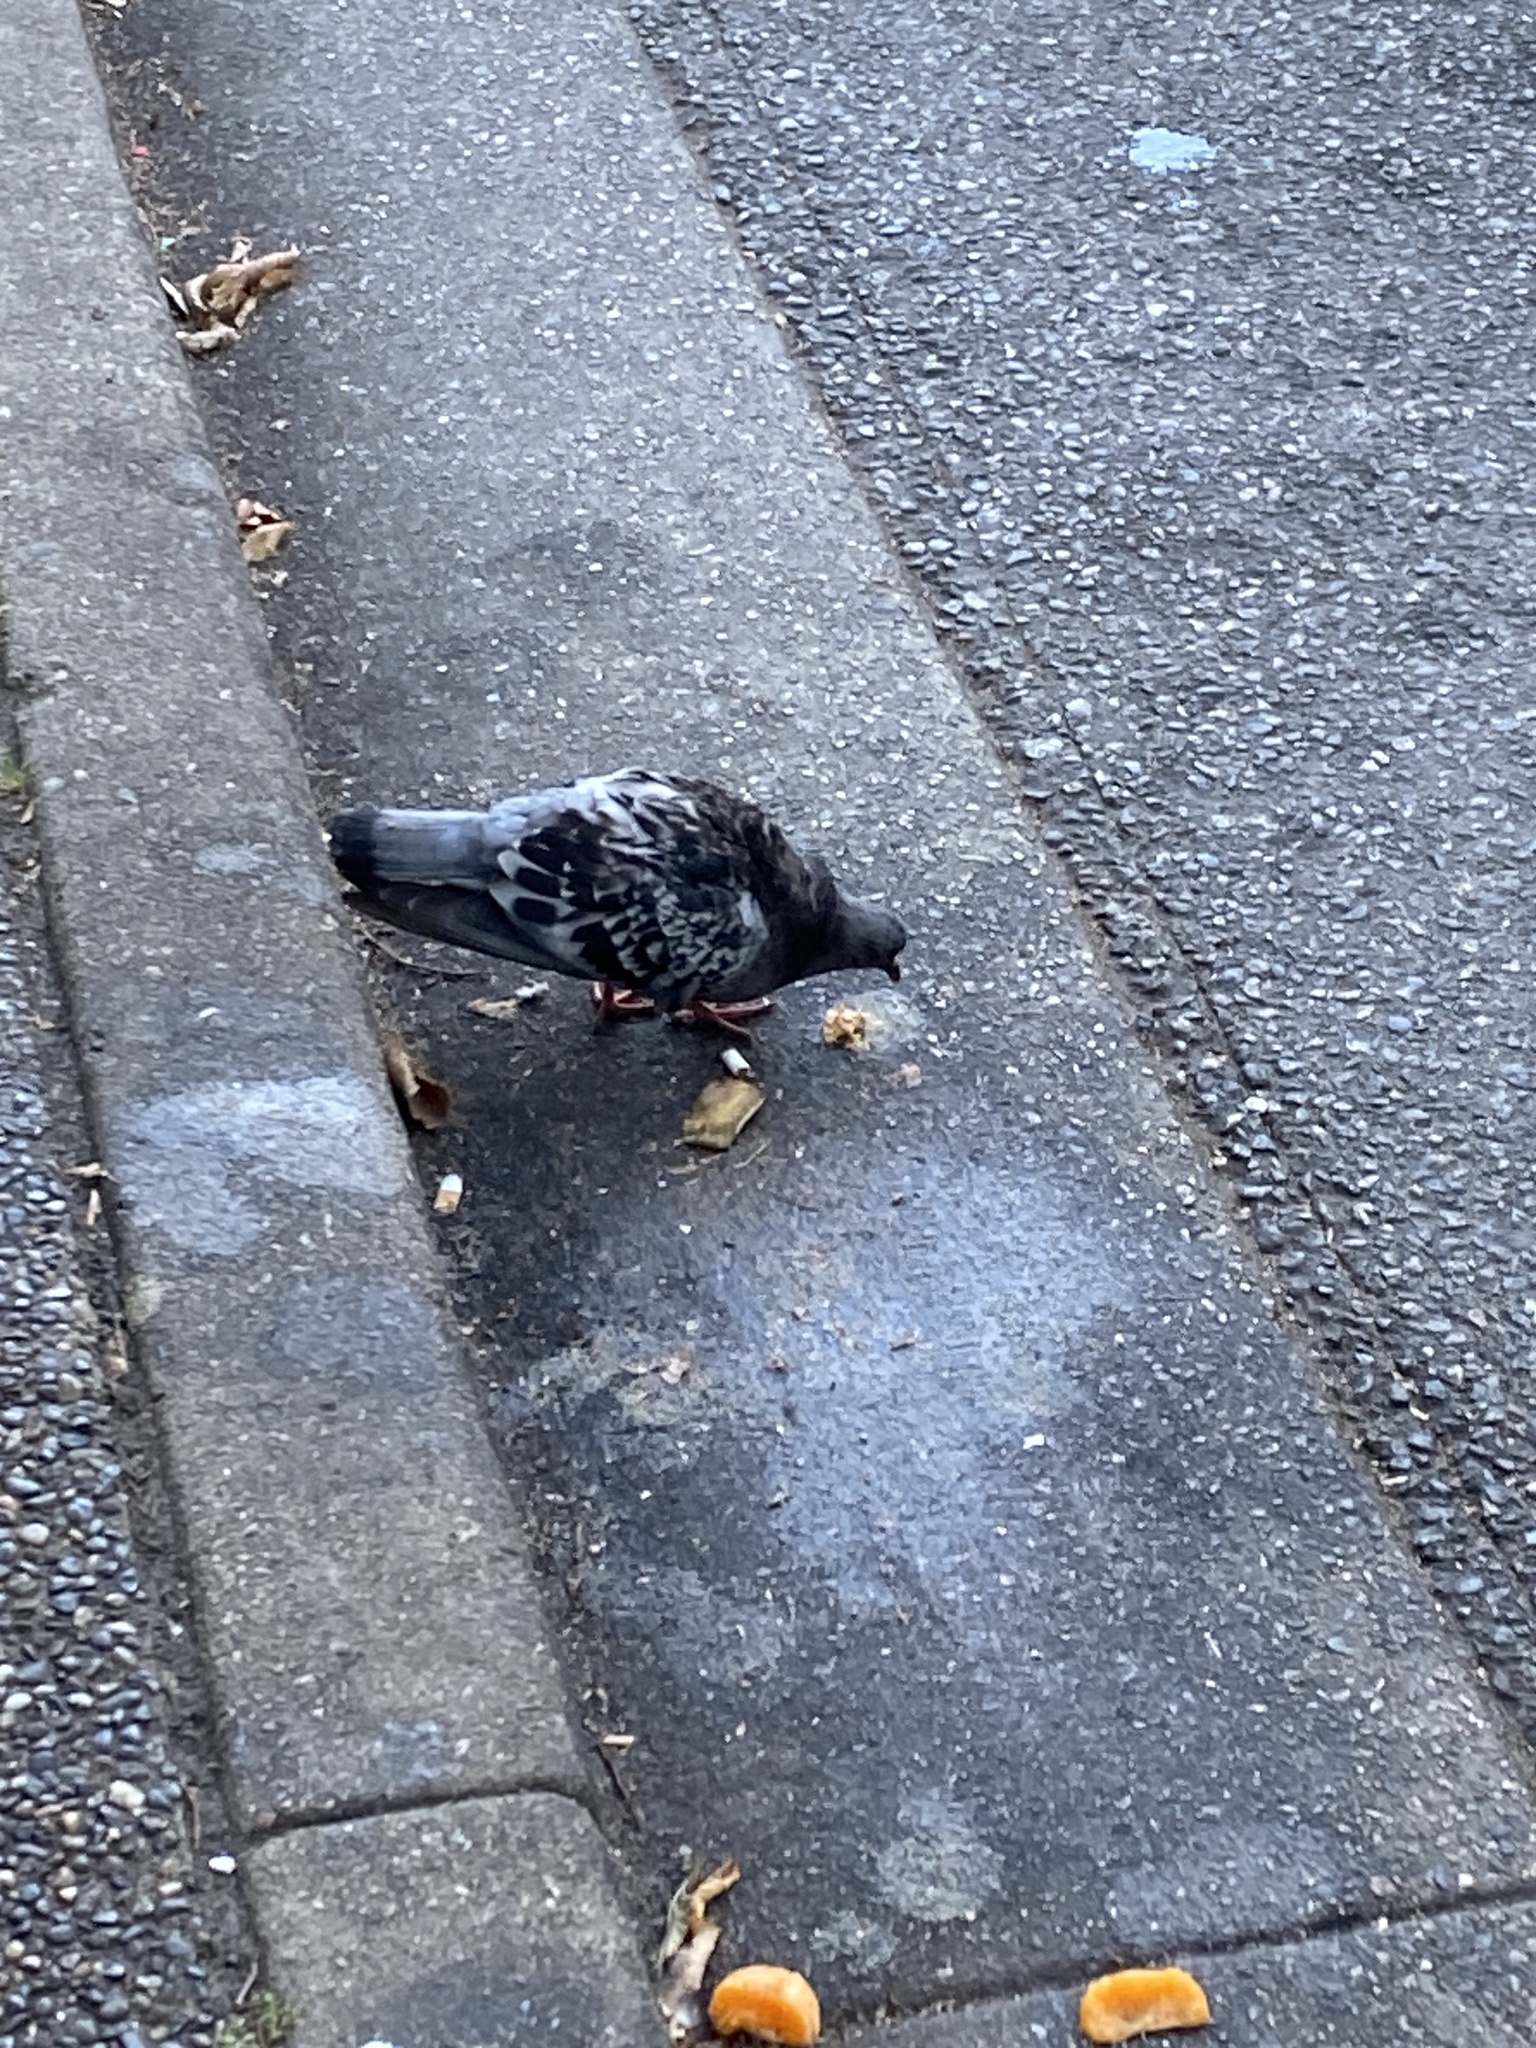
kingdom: Animalia
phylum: Chordata
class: Aves
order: Columbiformes
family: Columbidae
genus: Columba
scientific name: Columba livia
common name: Rock pigeon
